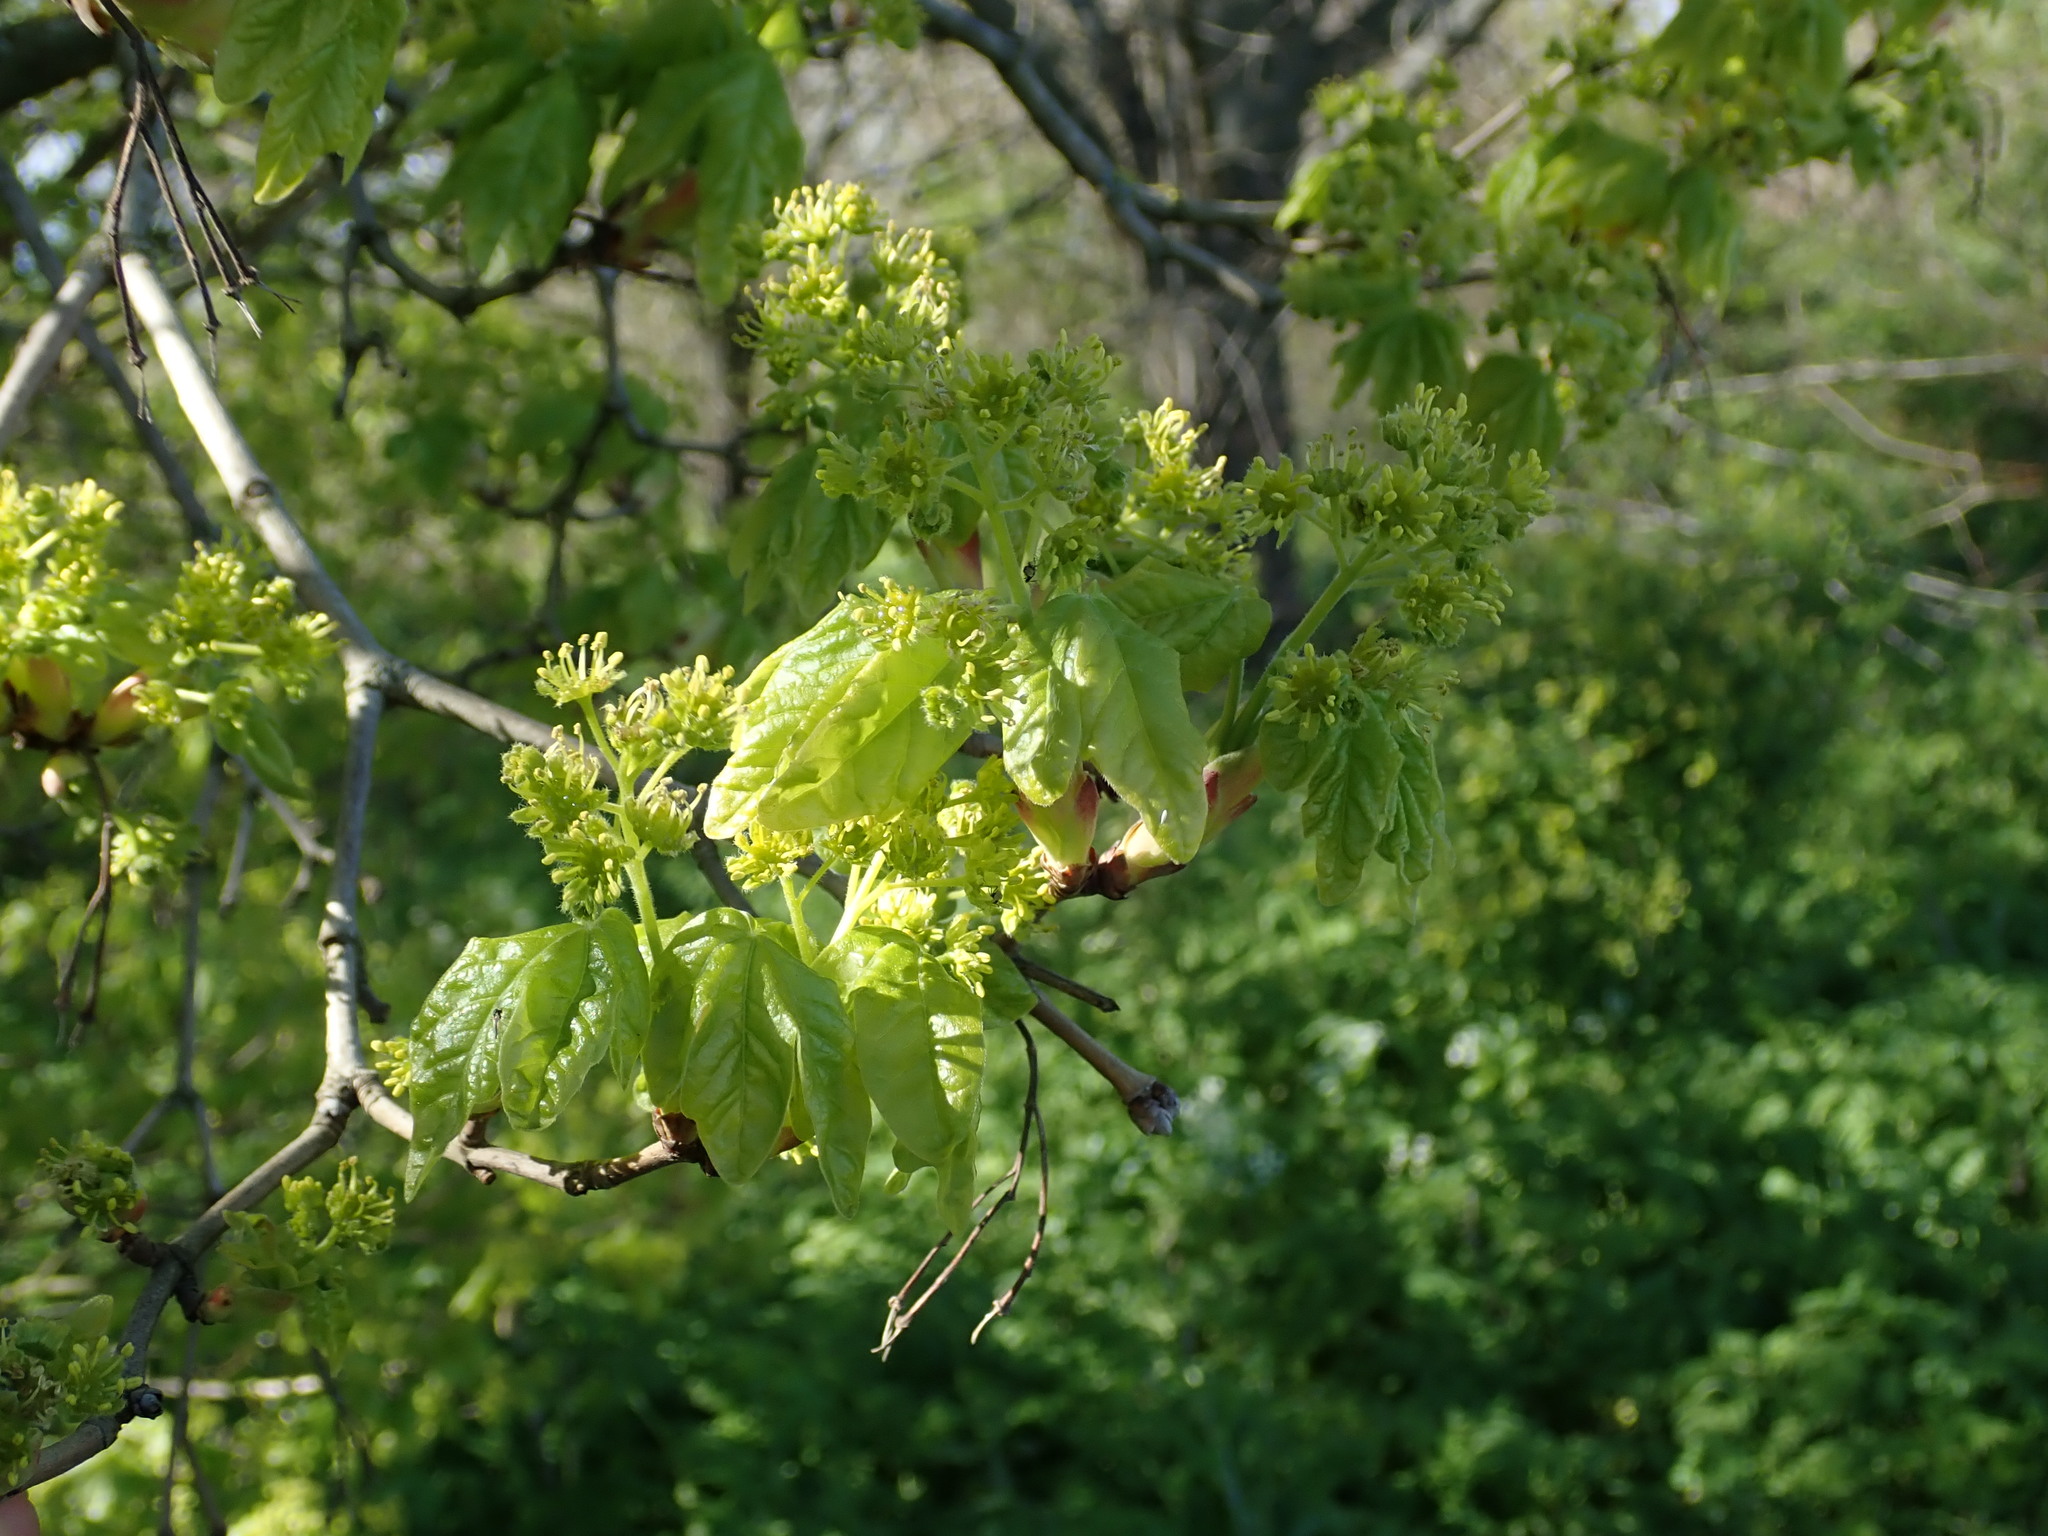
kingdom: Plantae
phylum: Tracheophyta
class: Magnoliopsida
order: Sapindales
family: Sapindaceae
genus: Acer
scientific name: Acer campestre
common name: Field maple
